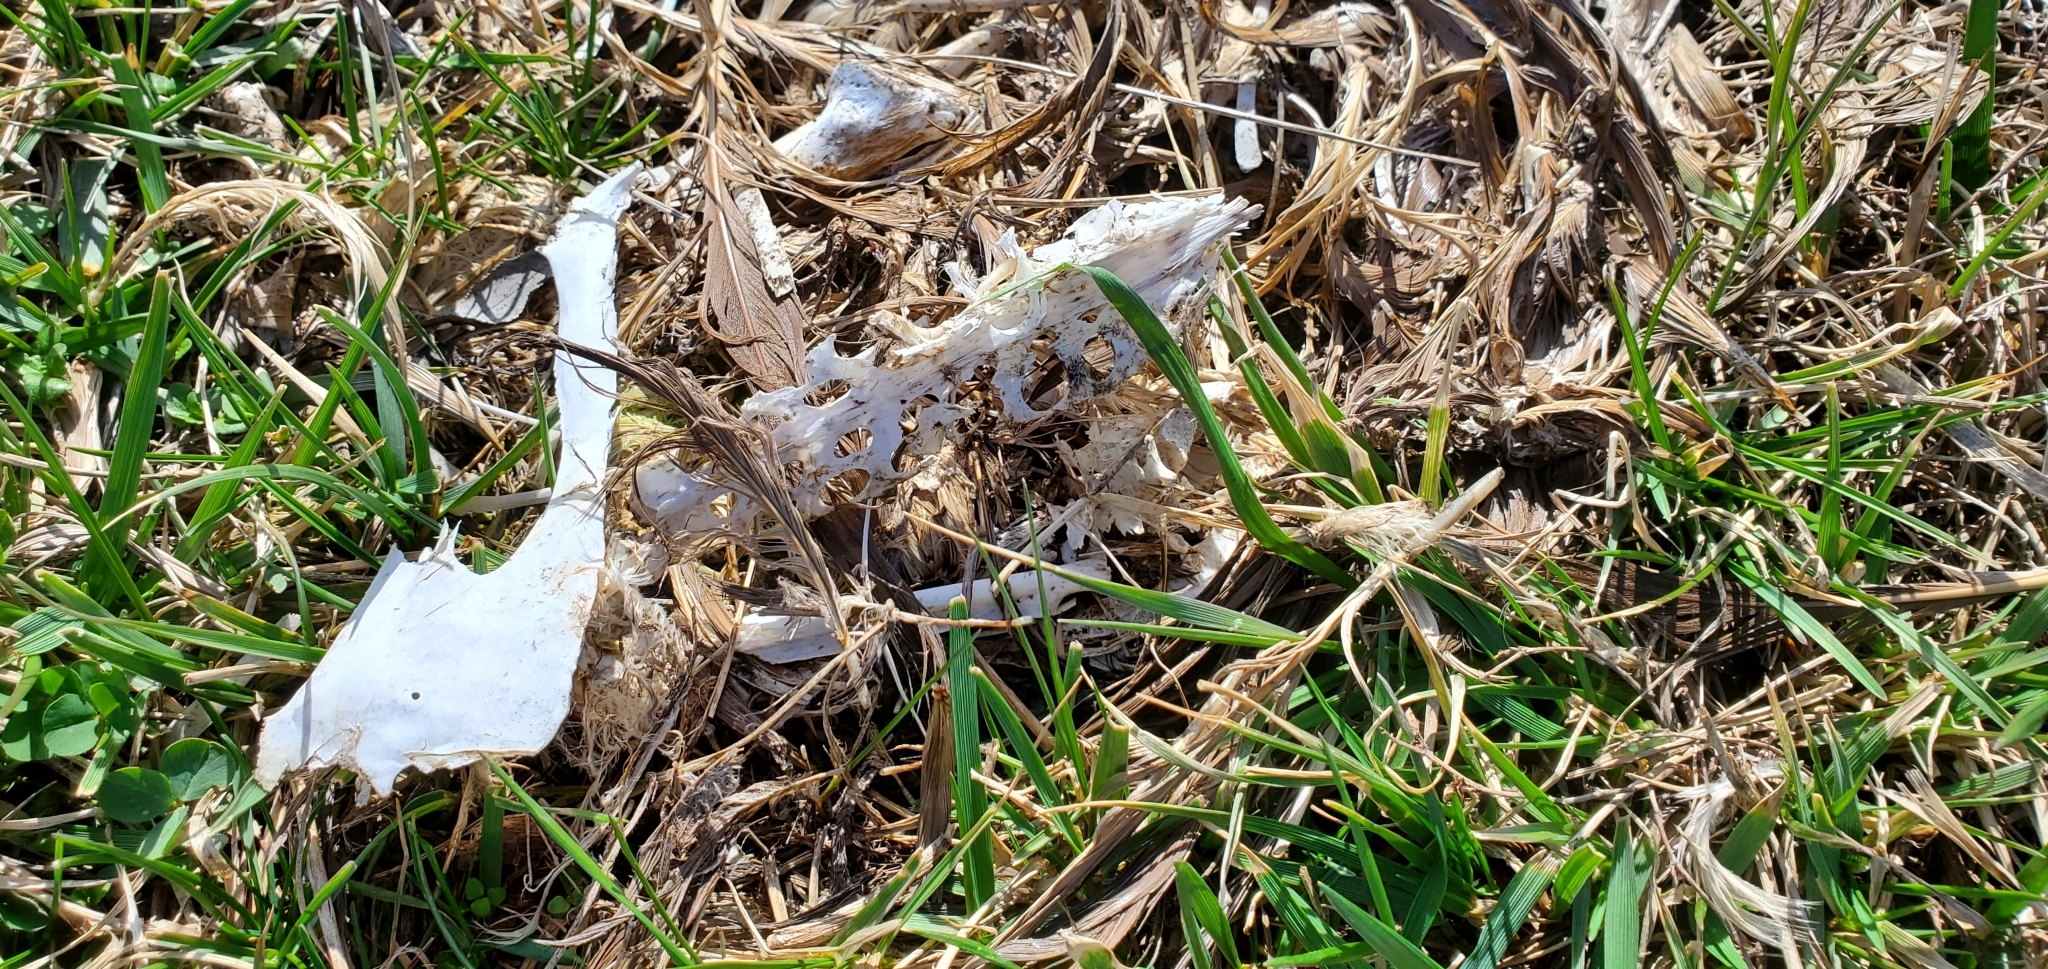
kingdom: Animalia
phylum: Chordata
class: Aves
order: Anseriformes
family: Anatidae
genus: Branta
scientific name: Branta canadensis
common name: Canada goose
